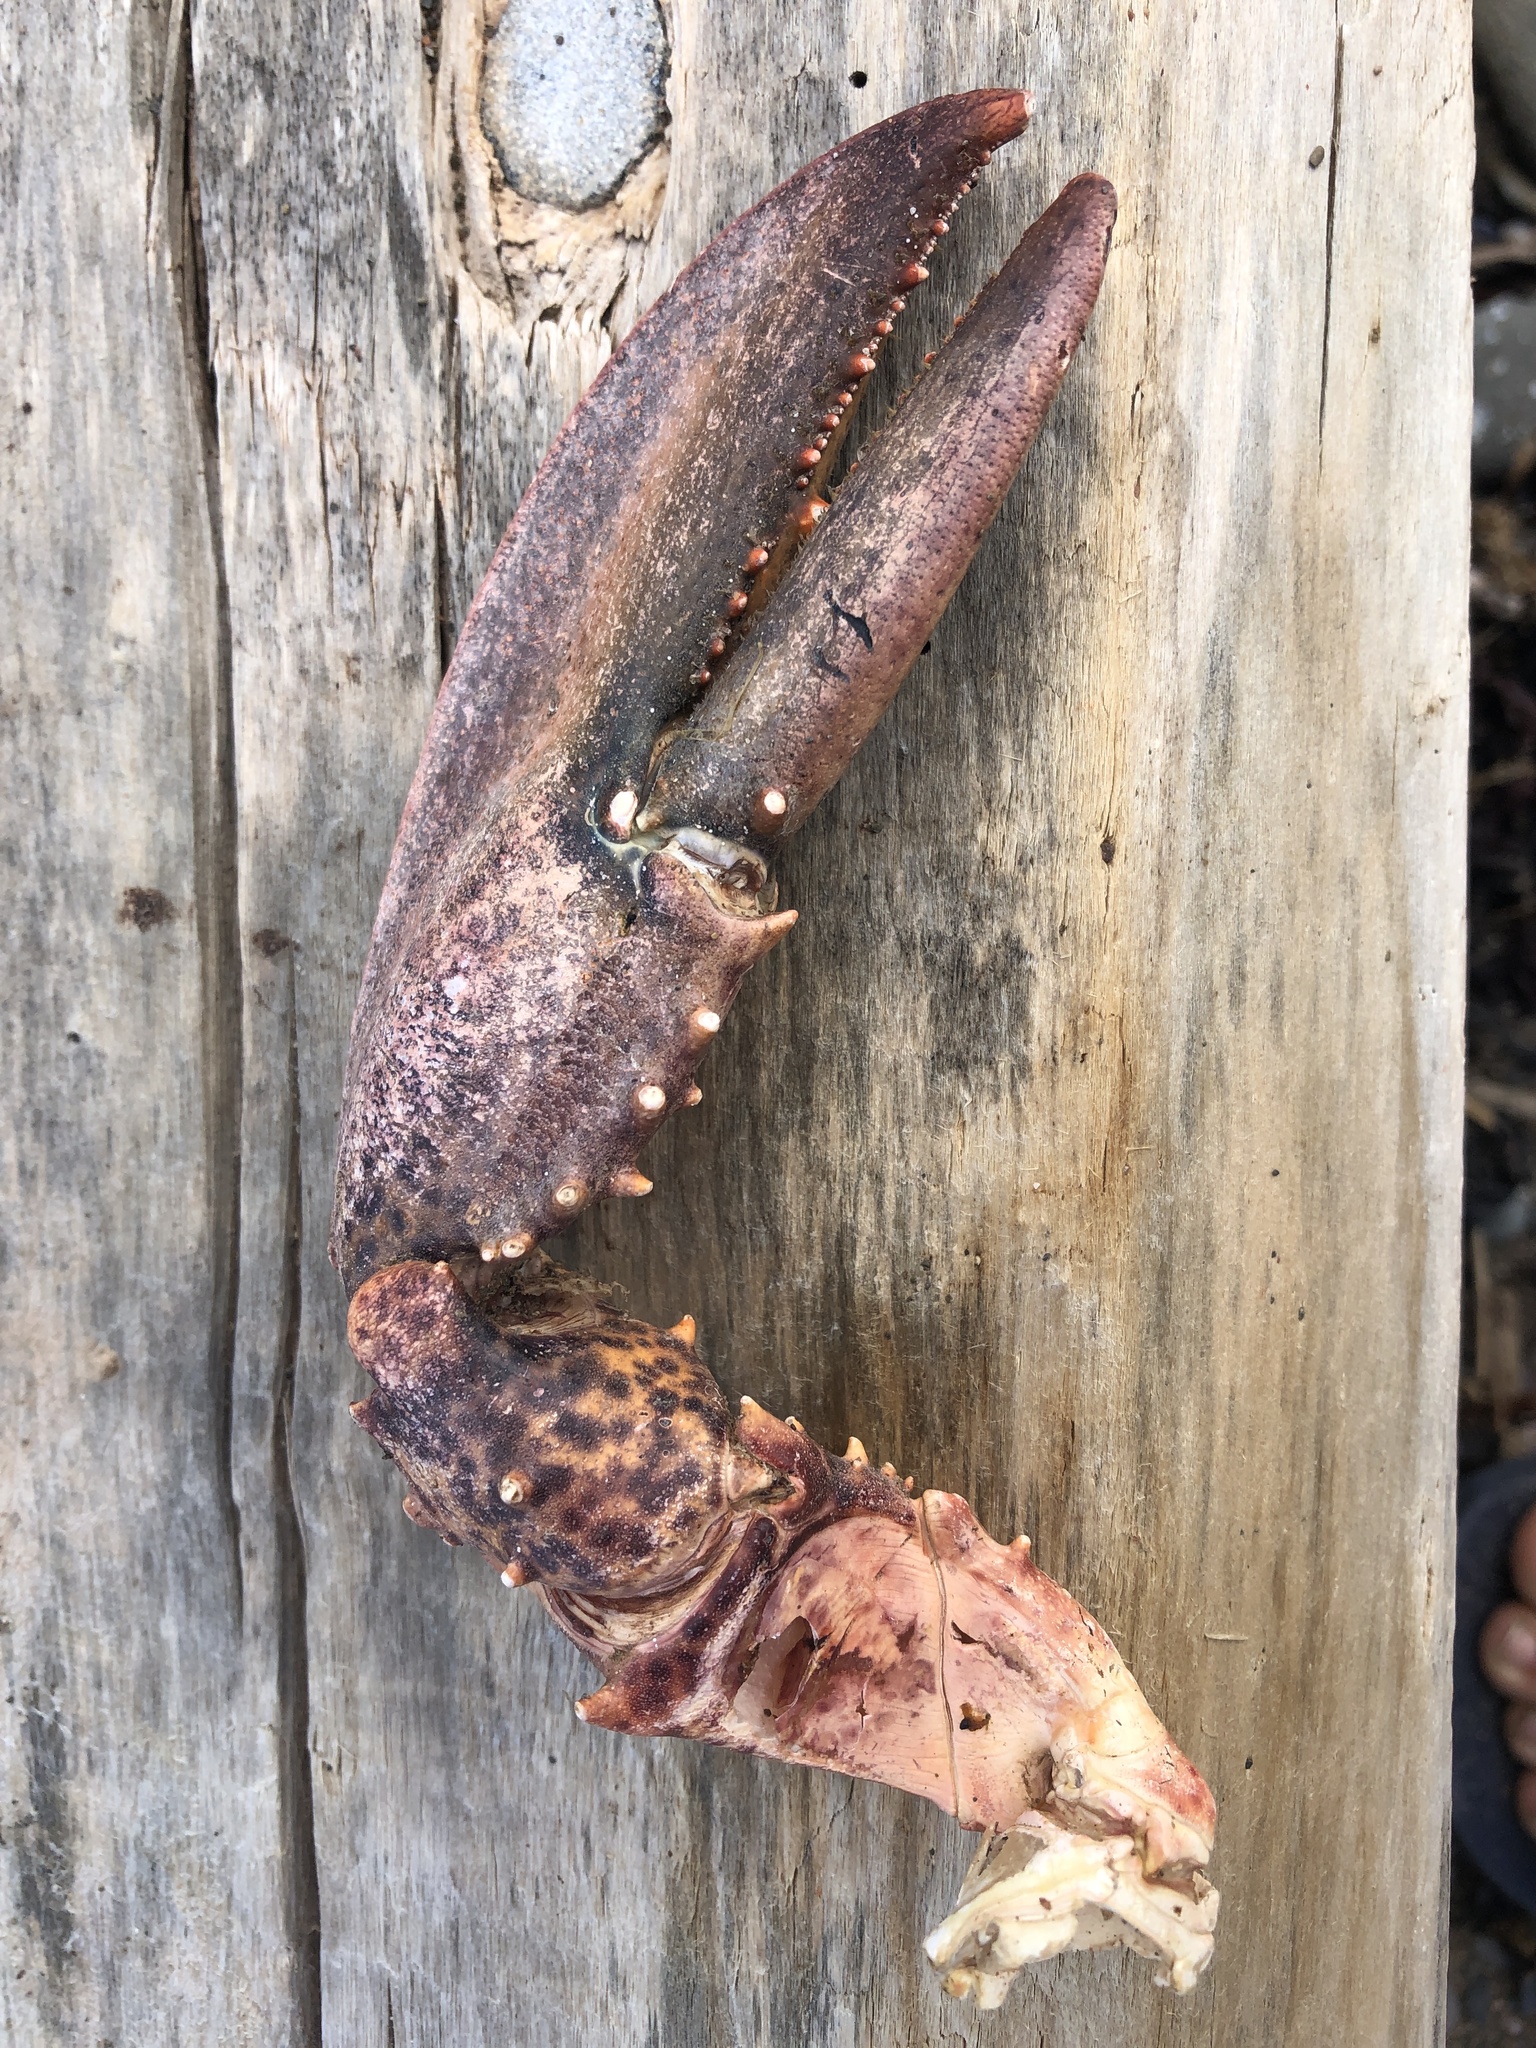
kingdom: Animalia
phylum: Arthropoda
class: Malacostraca
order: Decapoda
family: Nephropidae
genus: Homarus
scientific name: Homarus americanus
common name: American lobster
